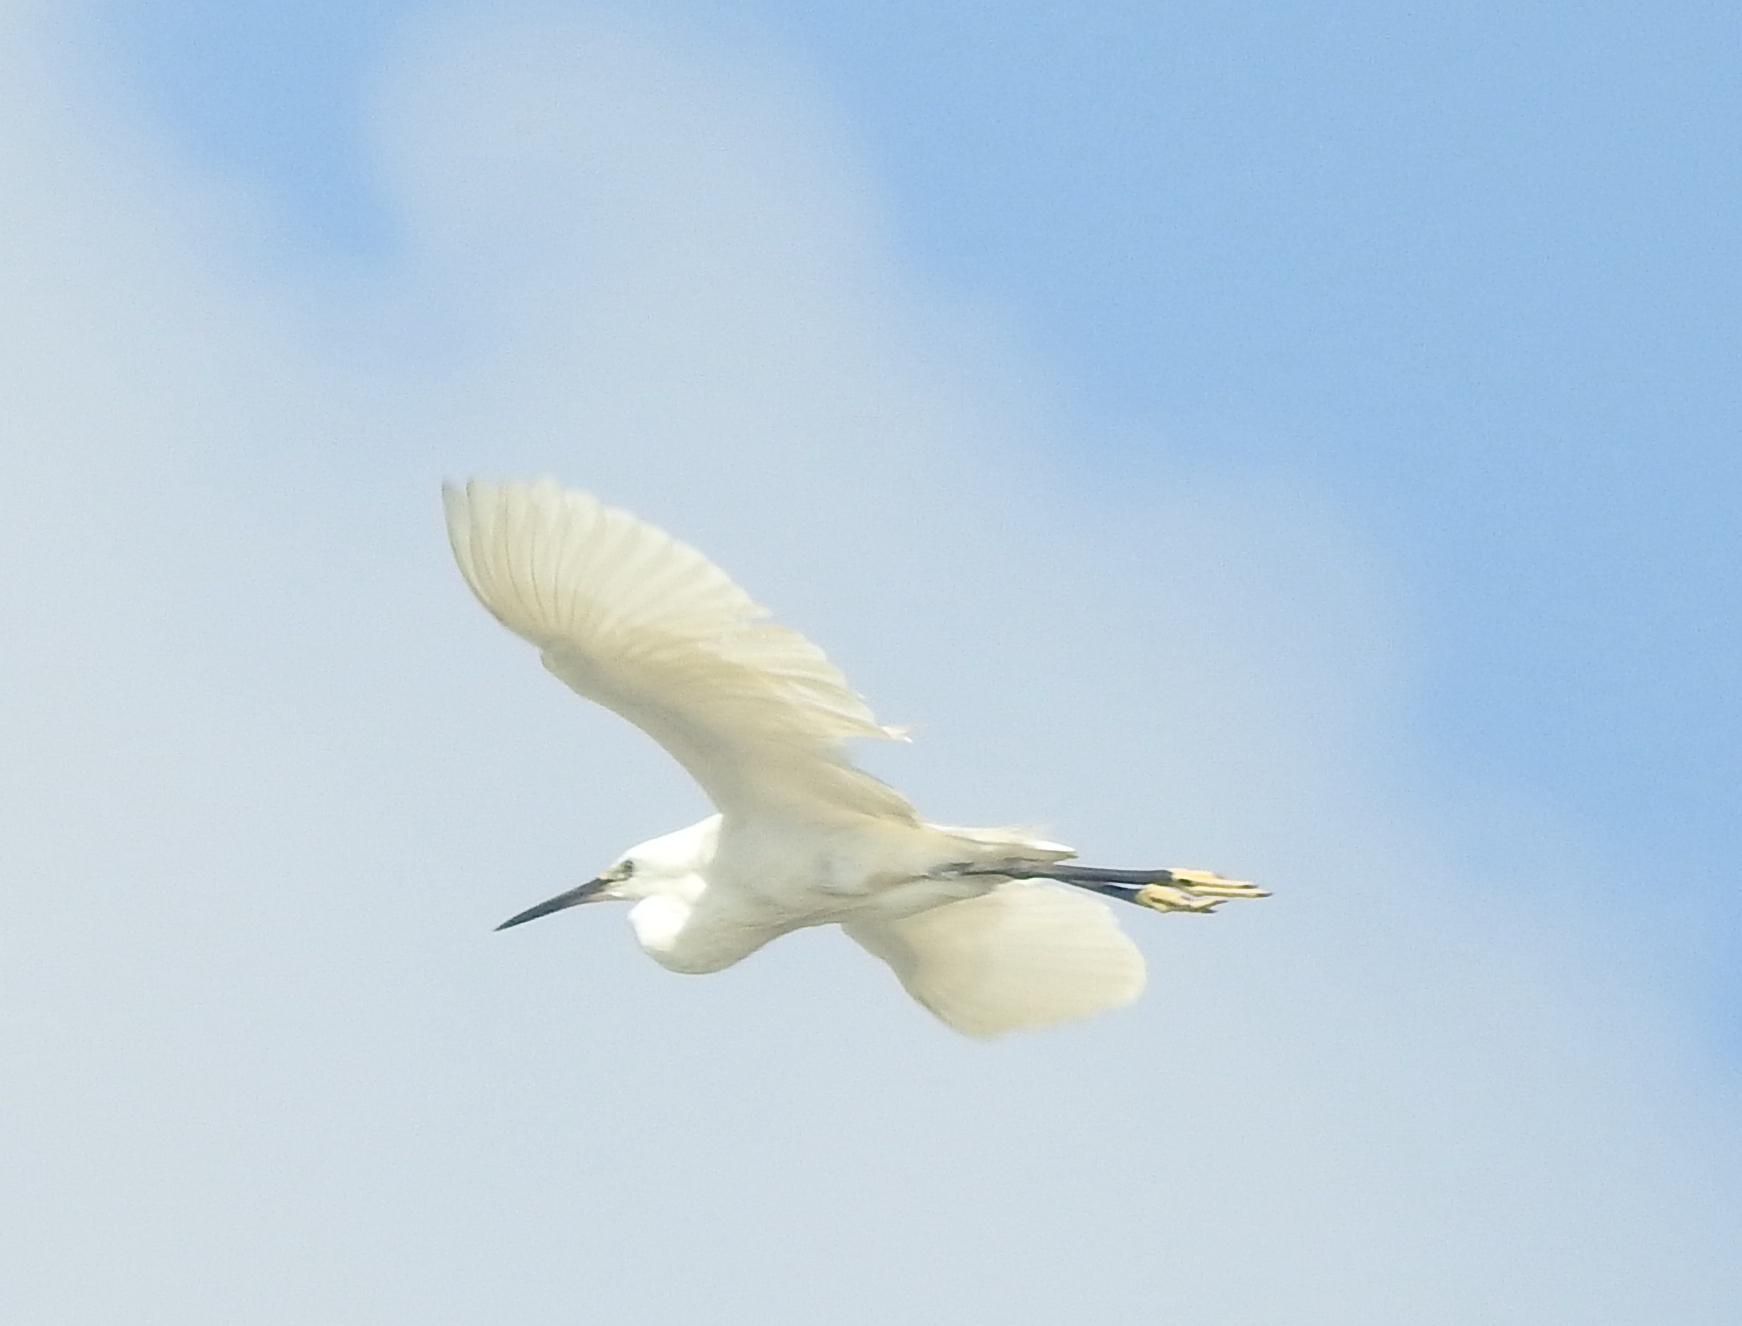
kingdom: Animalia
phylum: Chordata
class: Aves
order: Pelecaniformes
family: Ardeidae
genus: Egretta
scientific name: Egretta garzetta
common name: Little egret
